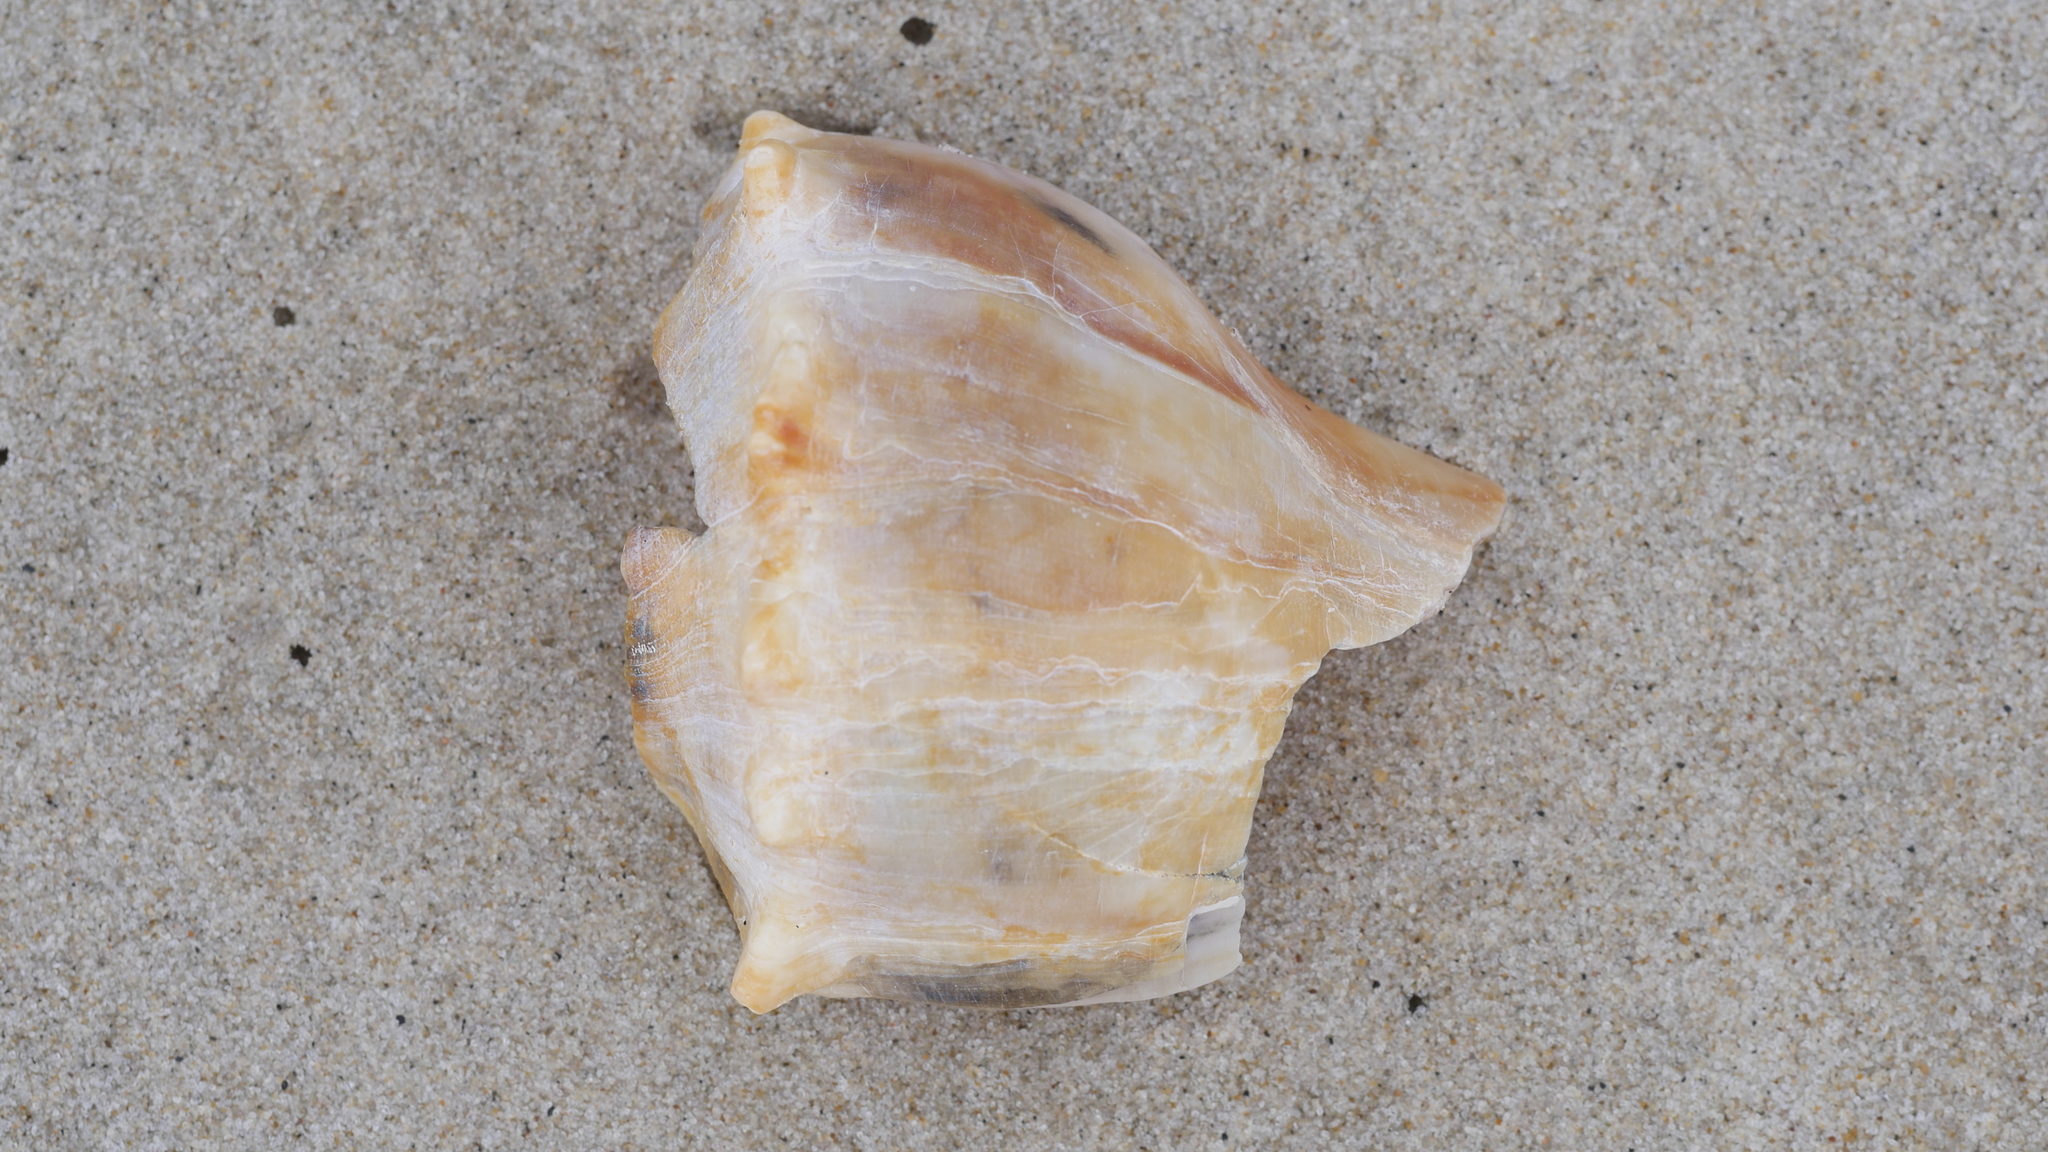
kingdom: Animalia
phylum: Mollusca
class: Gastropoda
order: Neogastropoda
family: Busyconidae
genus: Busycon
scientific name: Busycon carica
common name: Knobbed whelk
